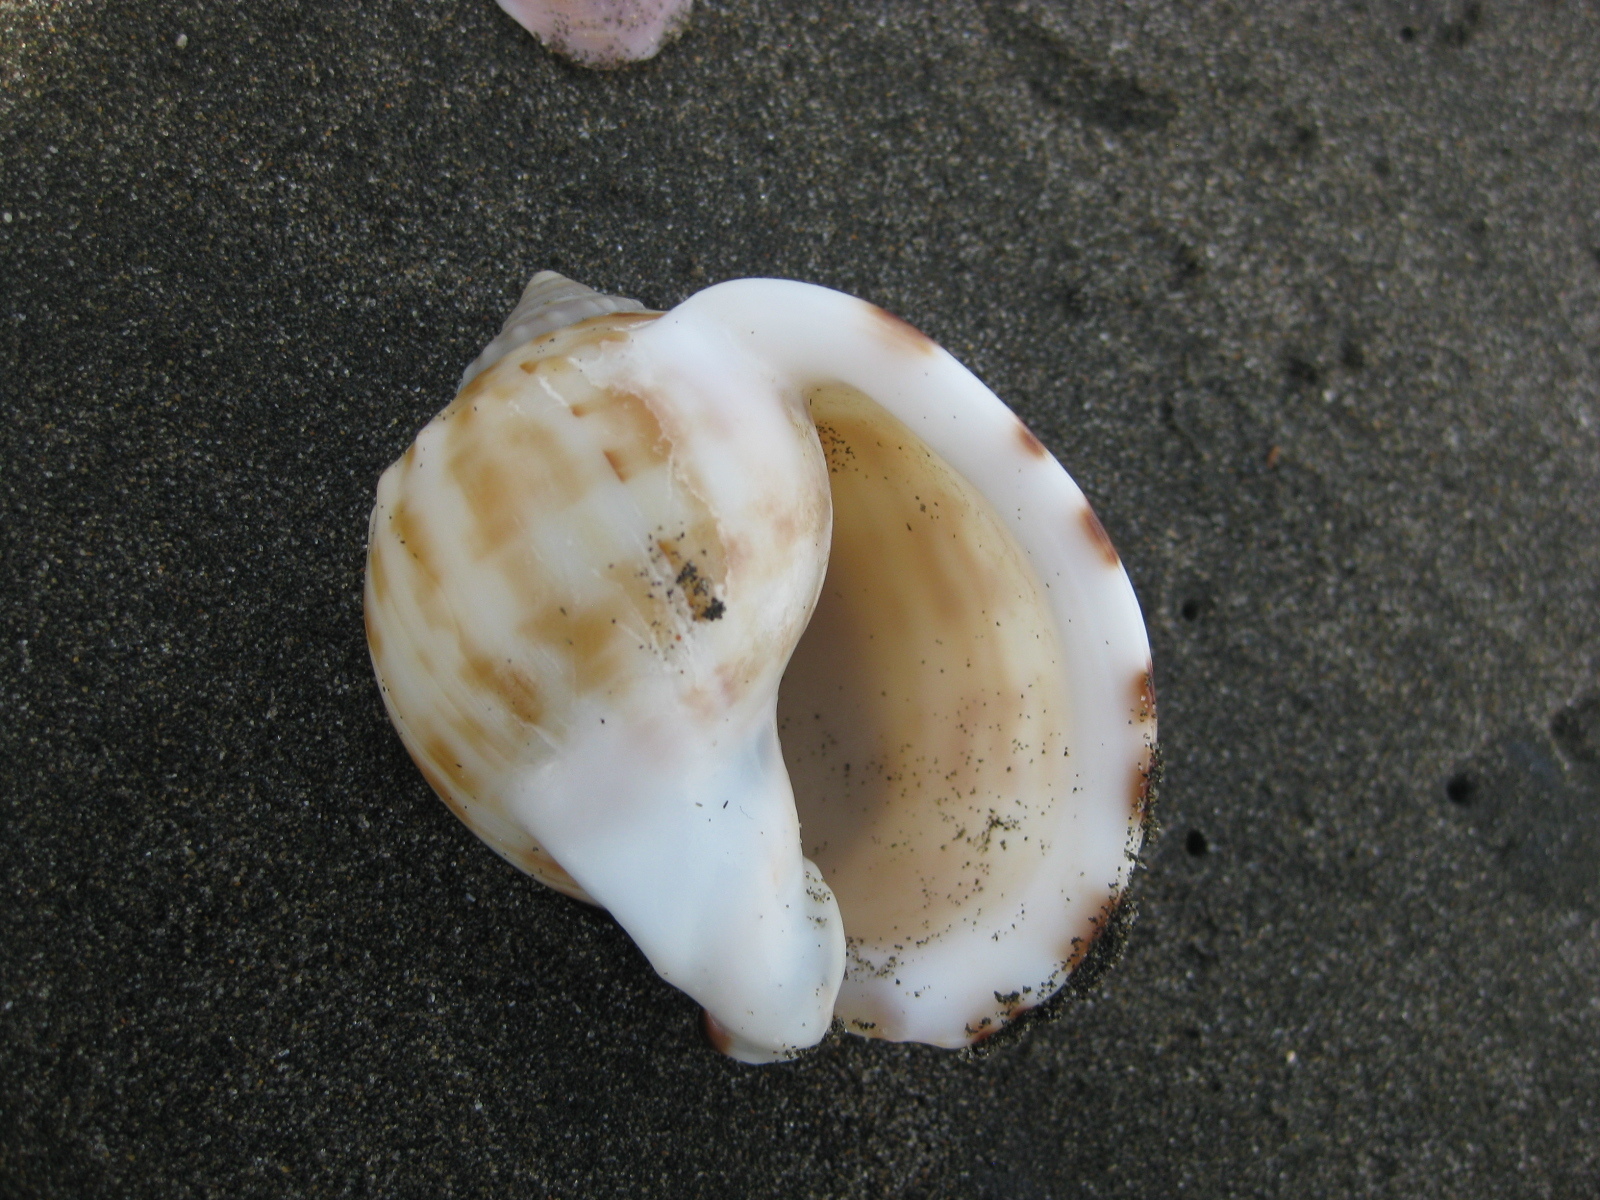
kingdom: Animalia
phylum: Mollusca
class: Gastropoda
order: Littorinimorpha
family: Cassidae
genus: Semicassis
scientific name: Semicassis pyrum
